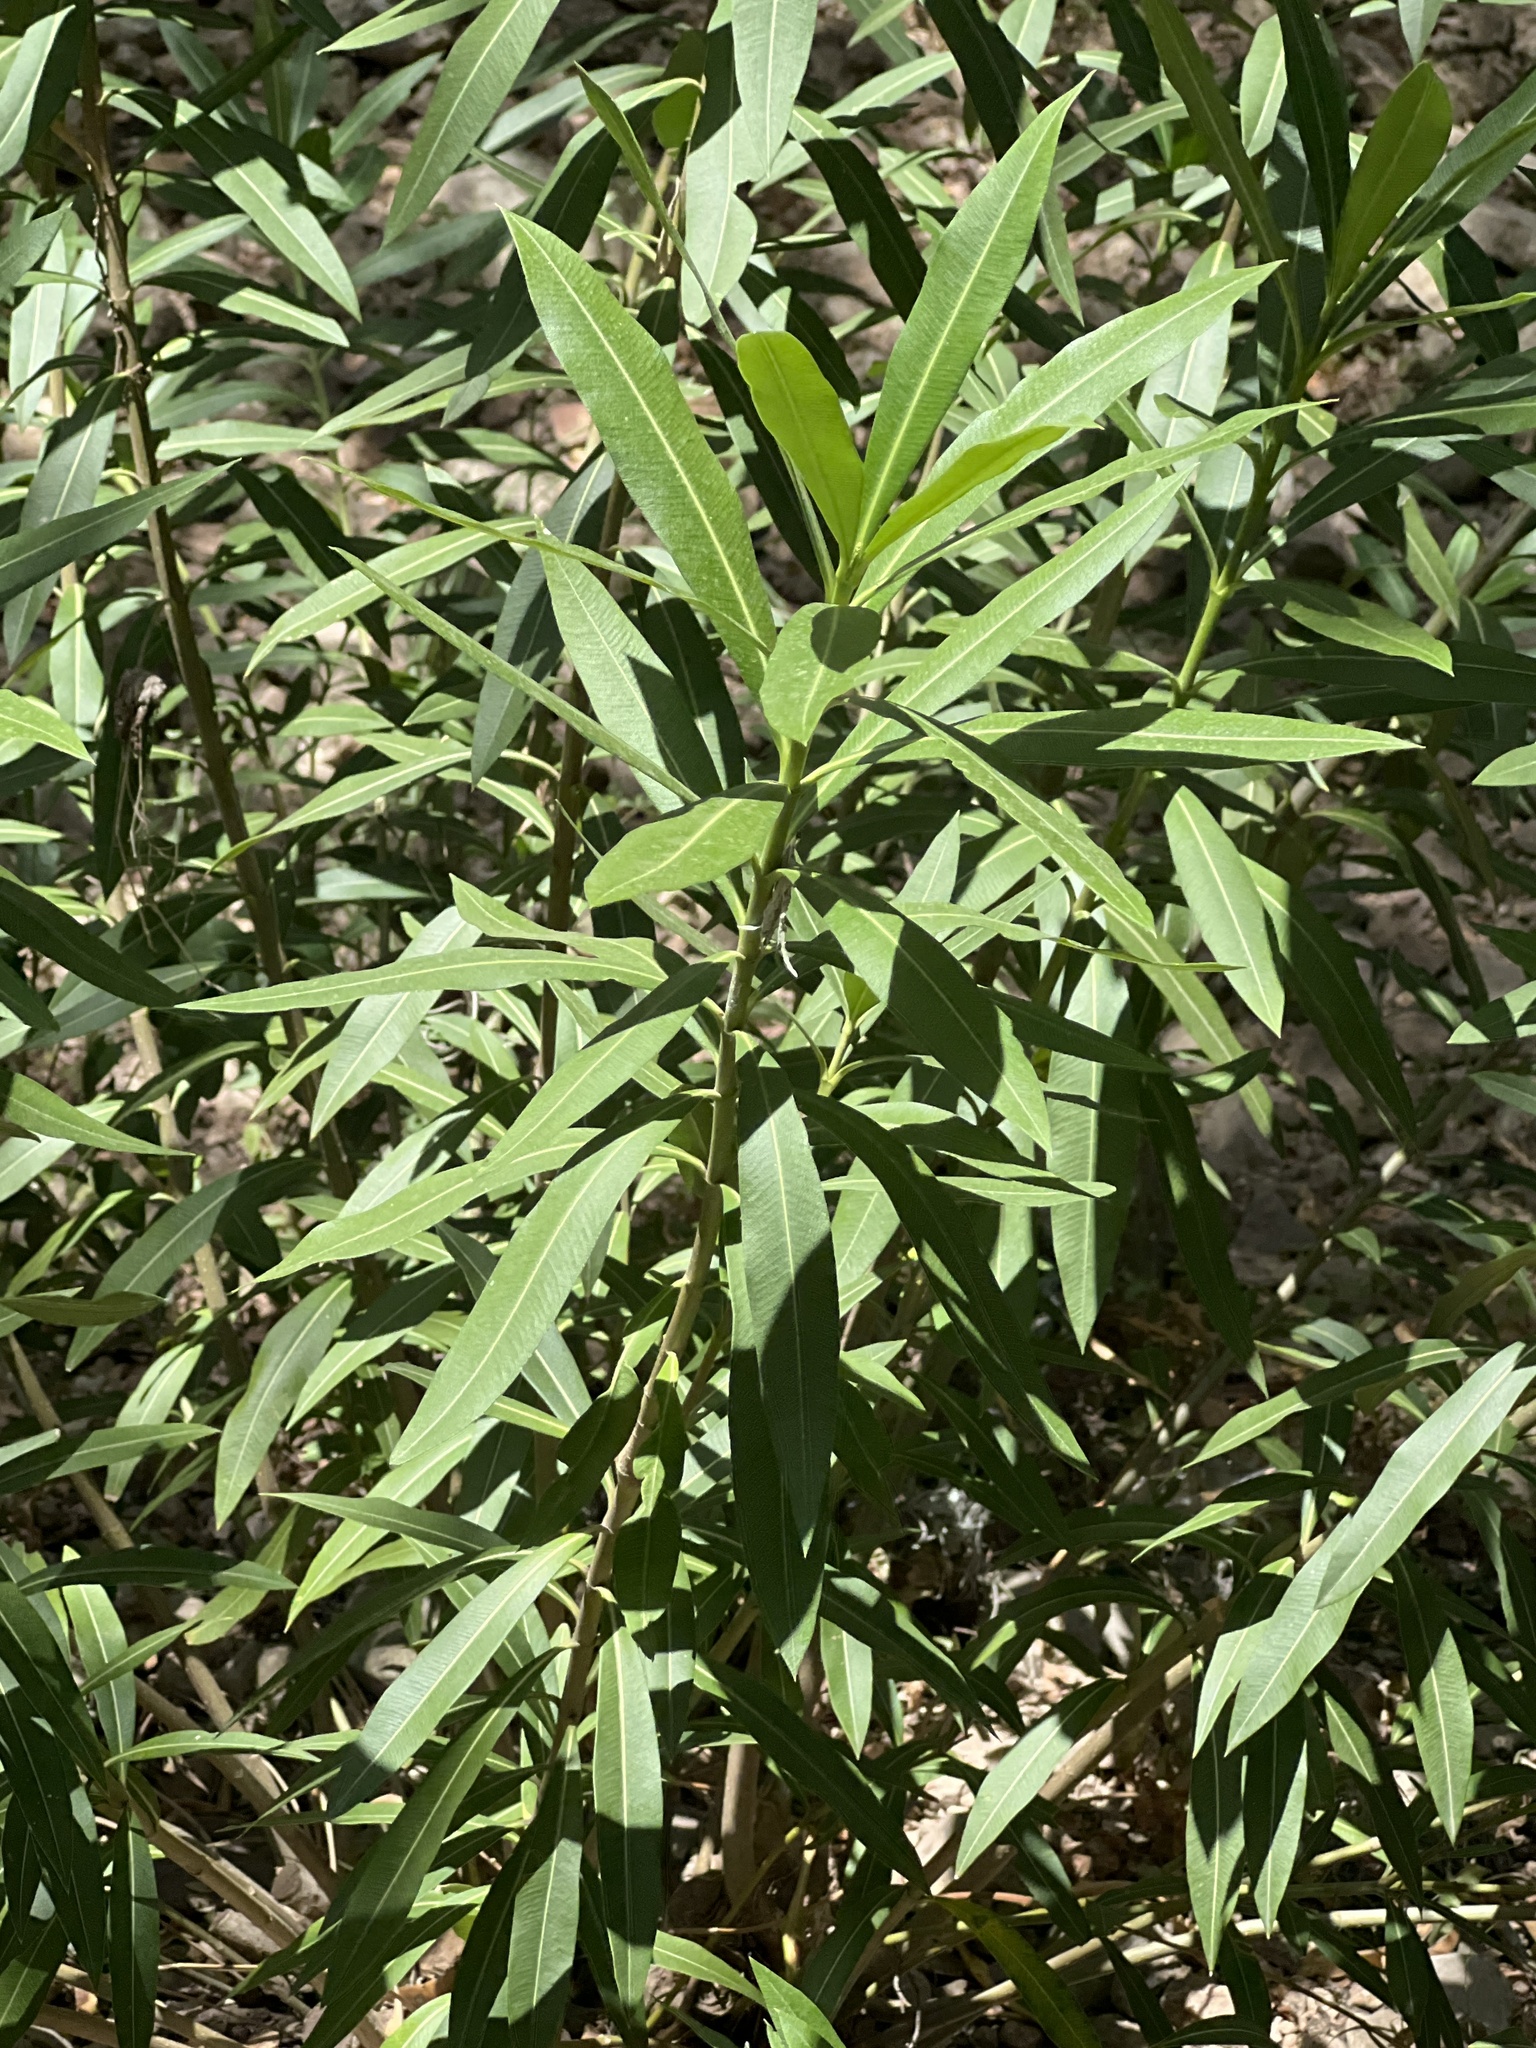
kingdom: Plantae
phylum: Tracheophyta
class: Magnoliopsida
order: Gentianales
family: Apocynaceae
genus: Nerium
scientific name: Nerium oleander
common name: Oleander
